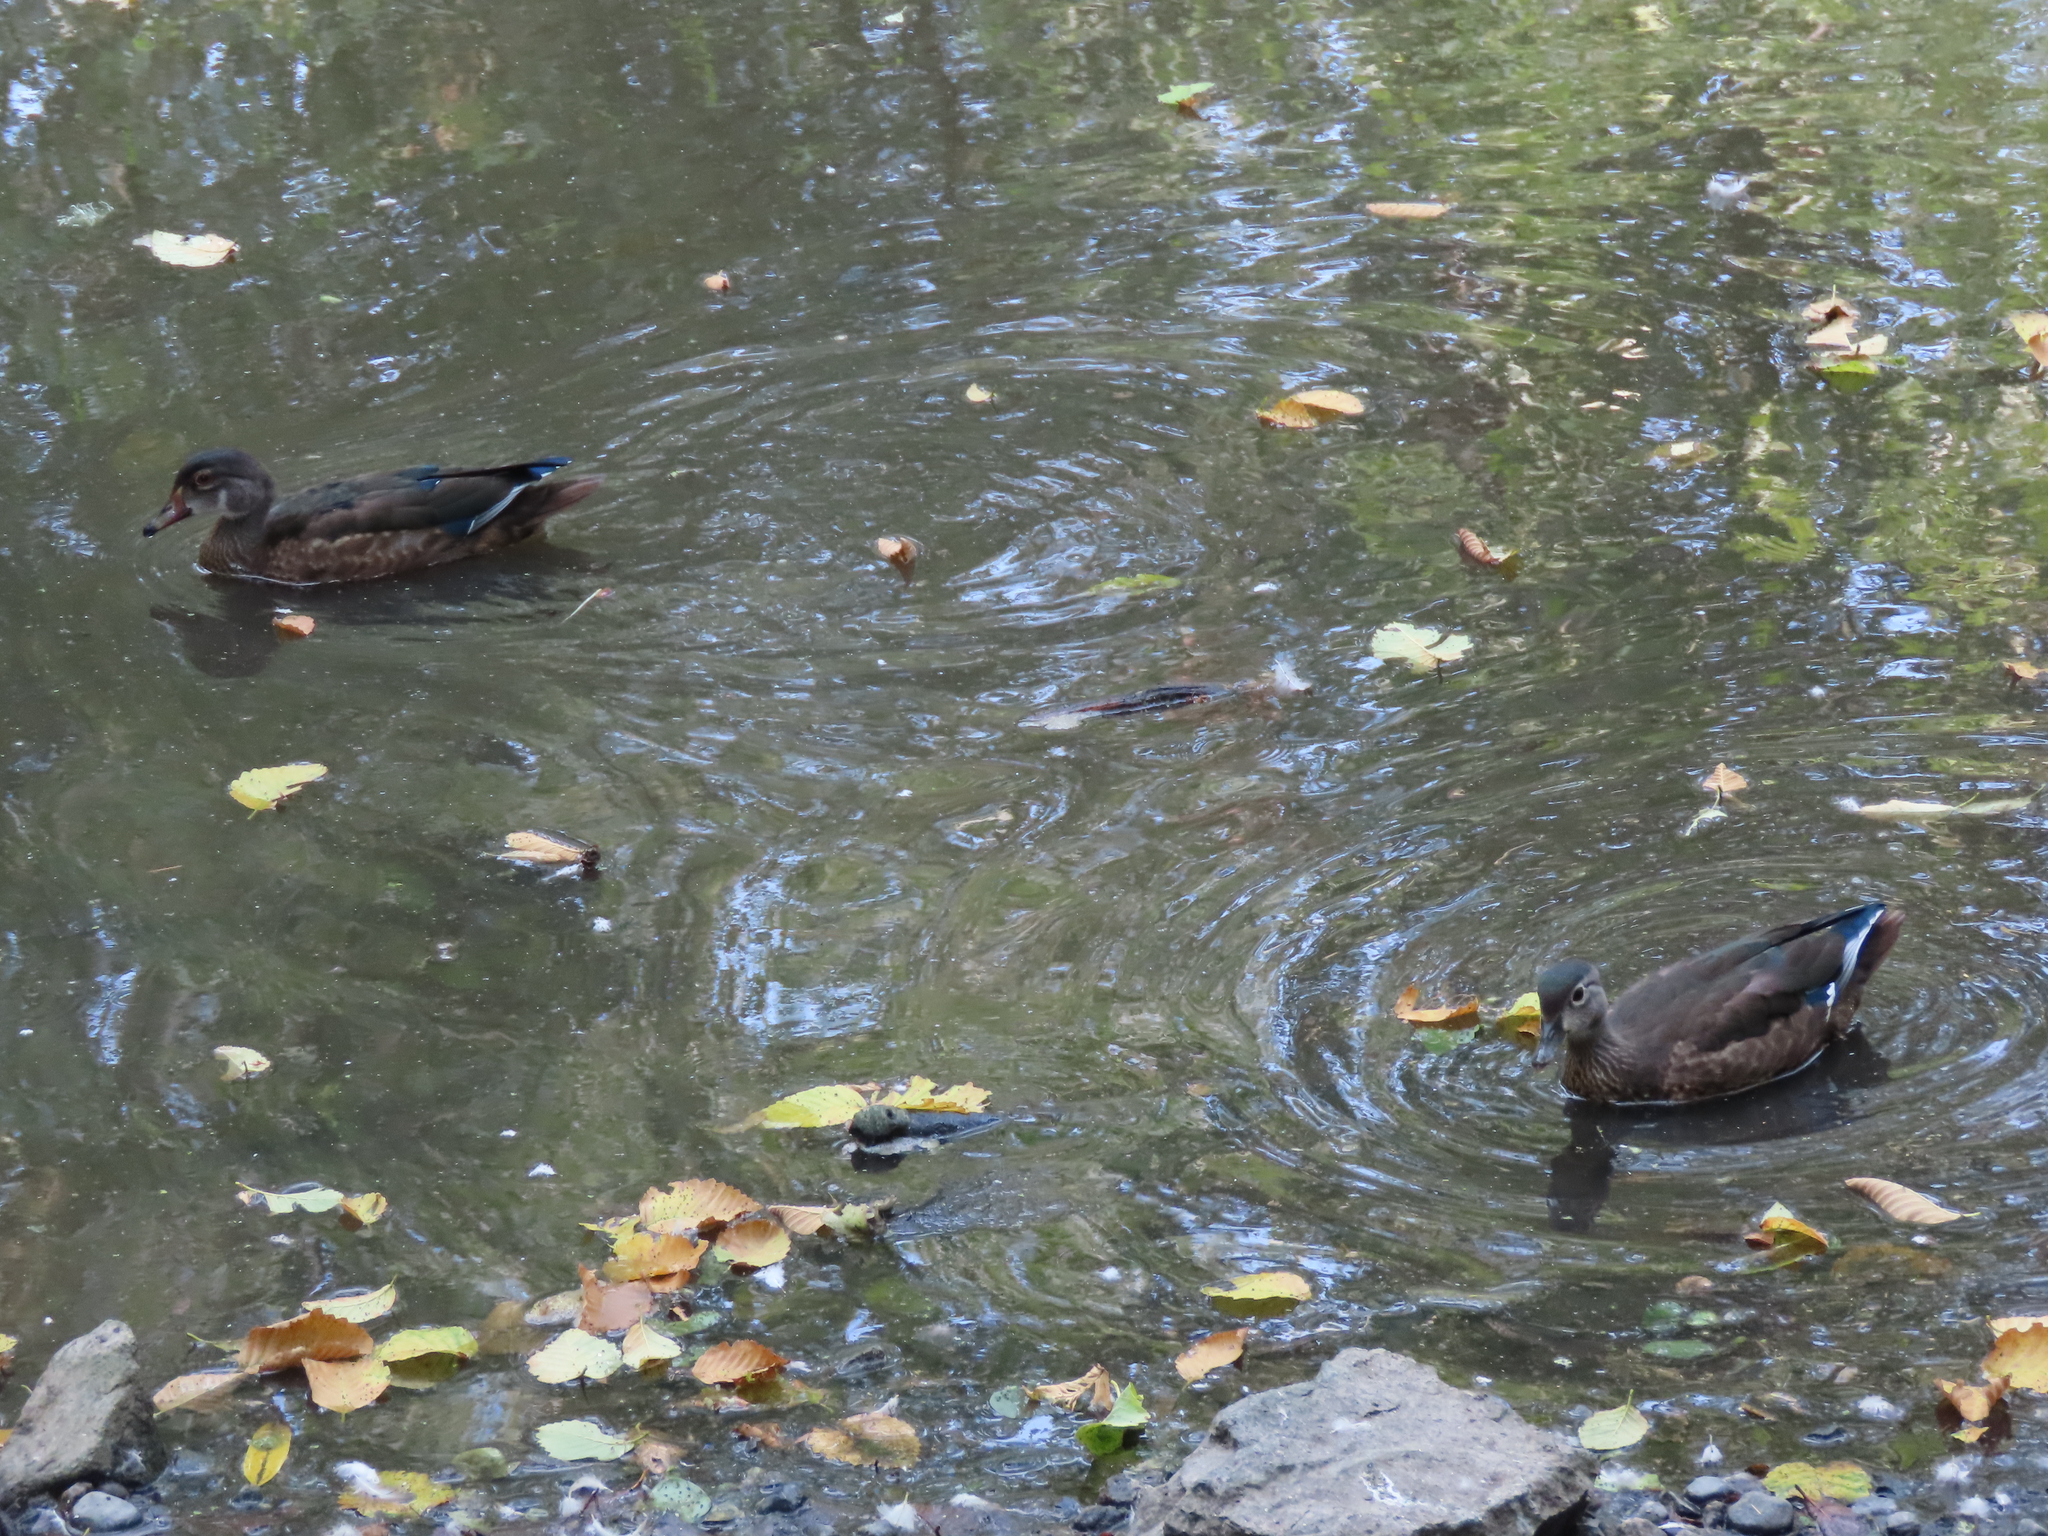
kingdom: Animalia
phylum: Chordata
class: Aves
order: Anseriformes
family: Anatidae
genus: Aix
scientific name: Aix sponsa
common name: Wood duck
